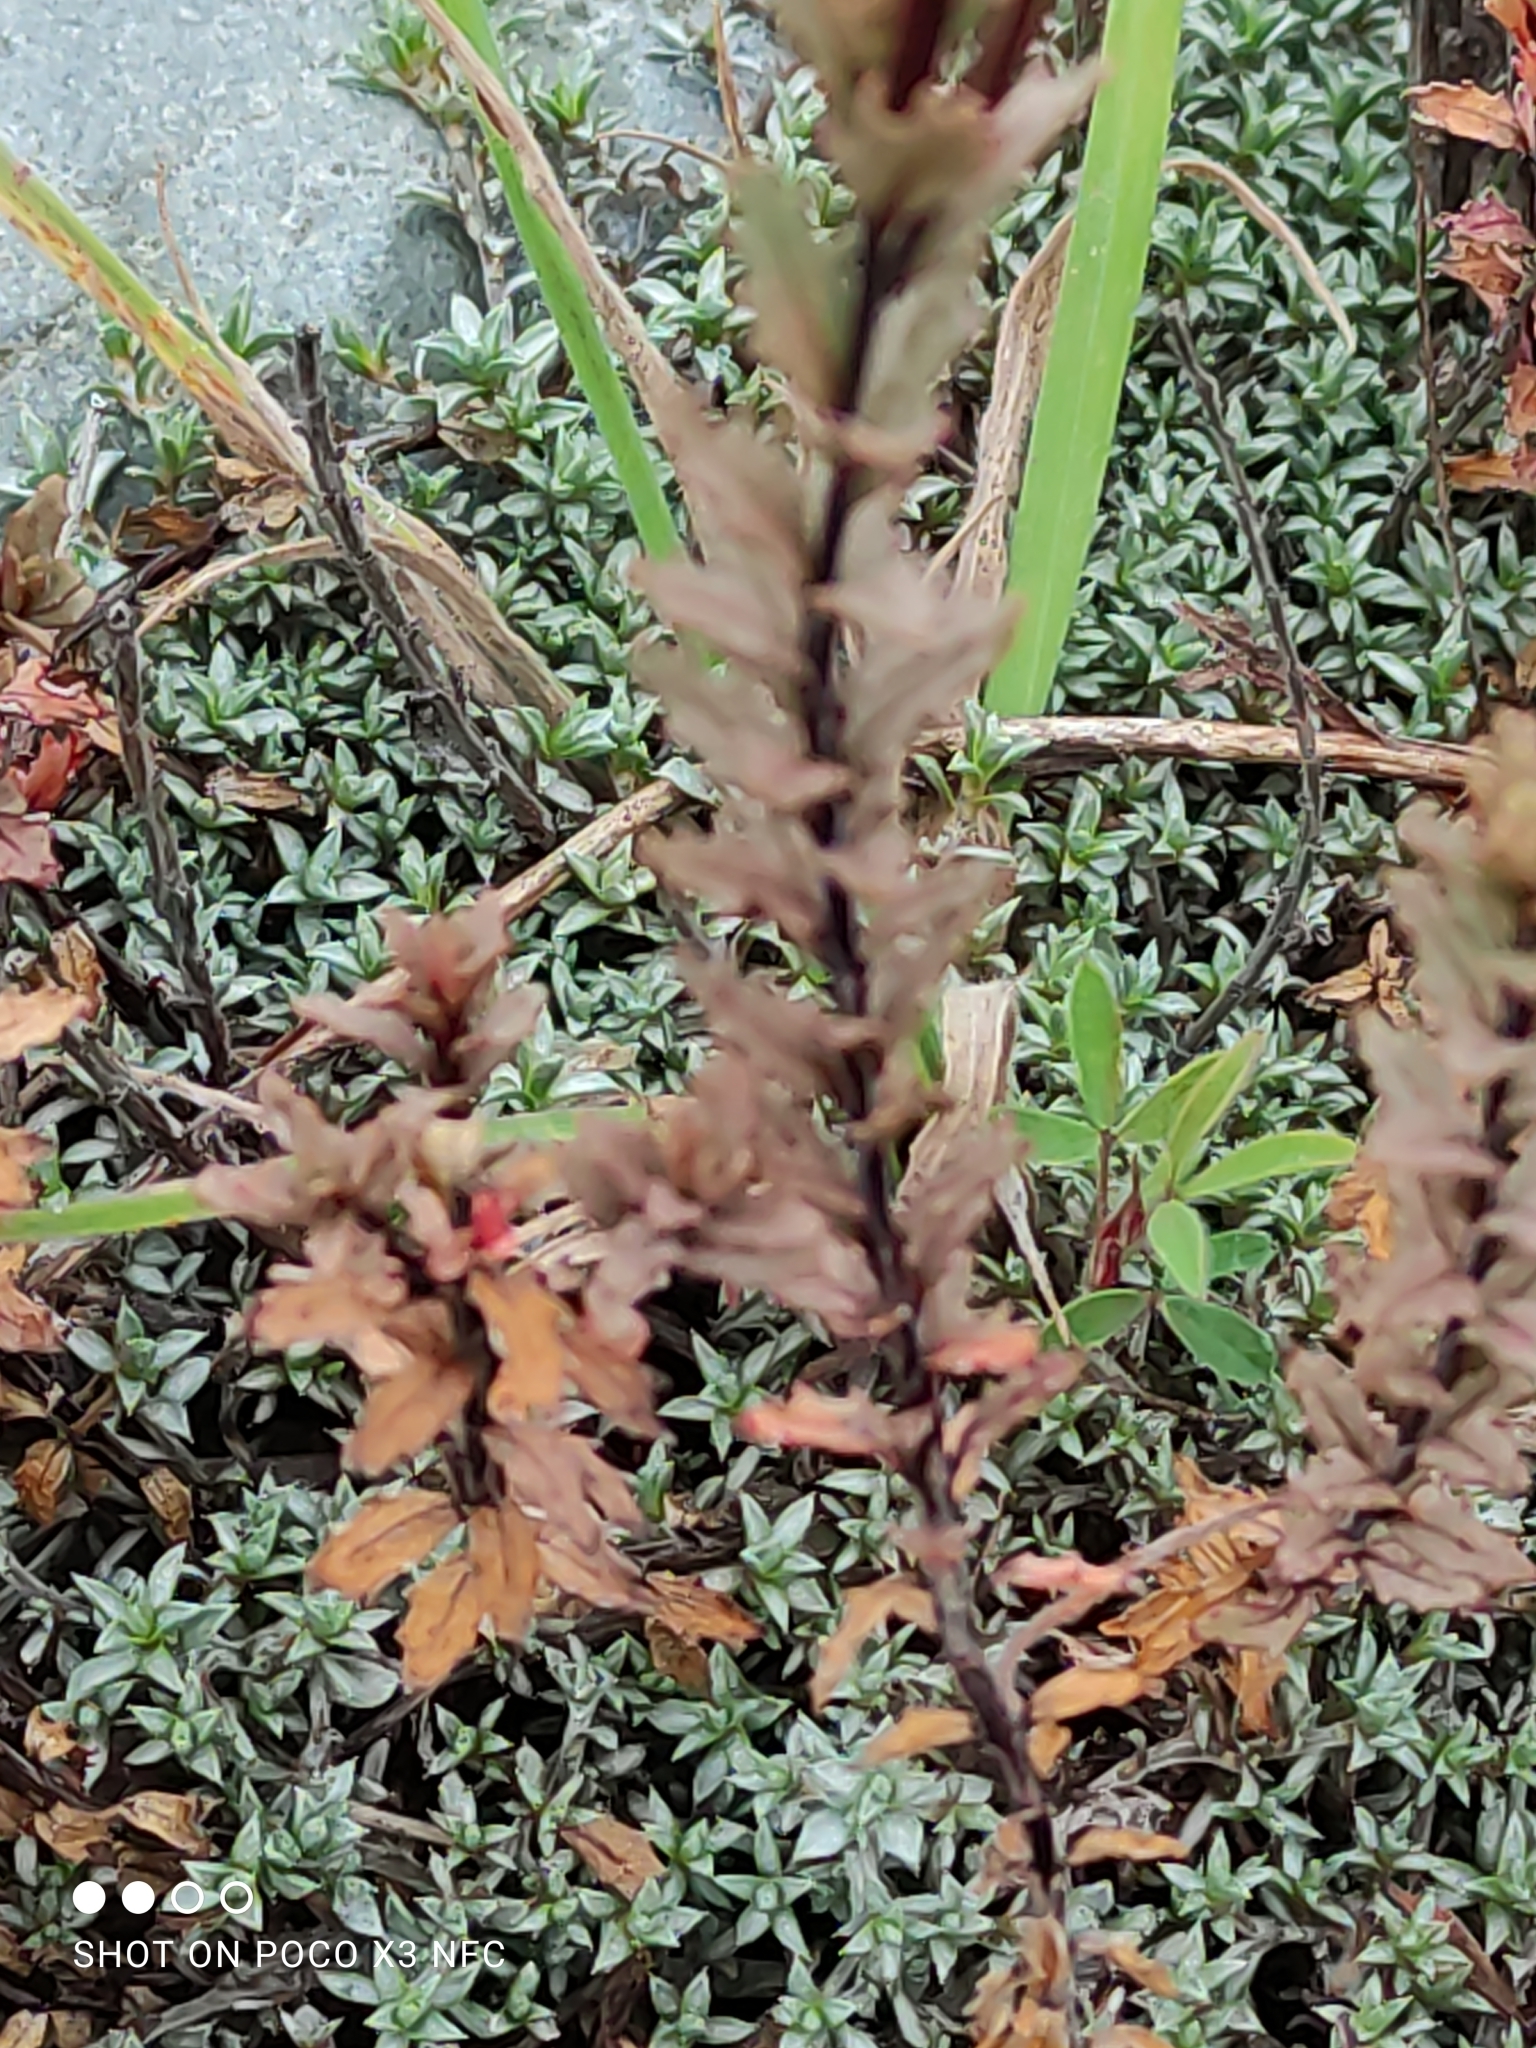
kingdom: Plantae
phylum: Tracheophyta
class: Magnoliopsida
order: Myrtales
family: Onagraceae
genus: Epilobium
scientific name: Epilobium melanocaulon
